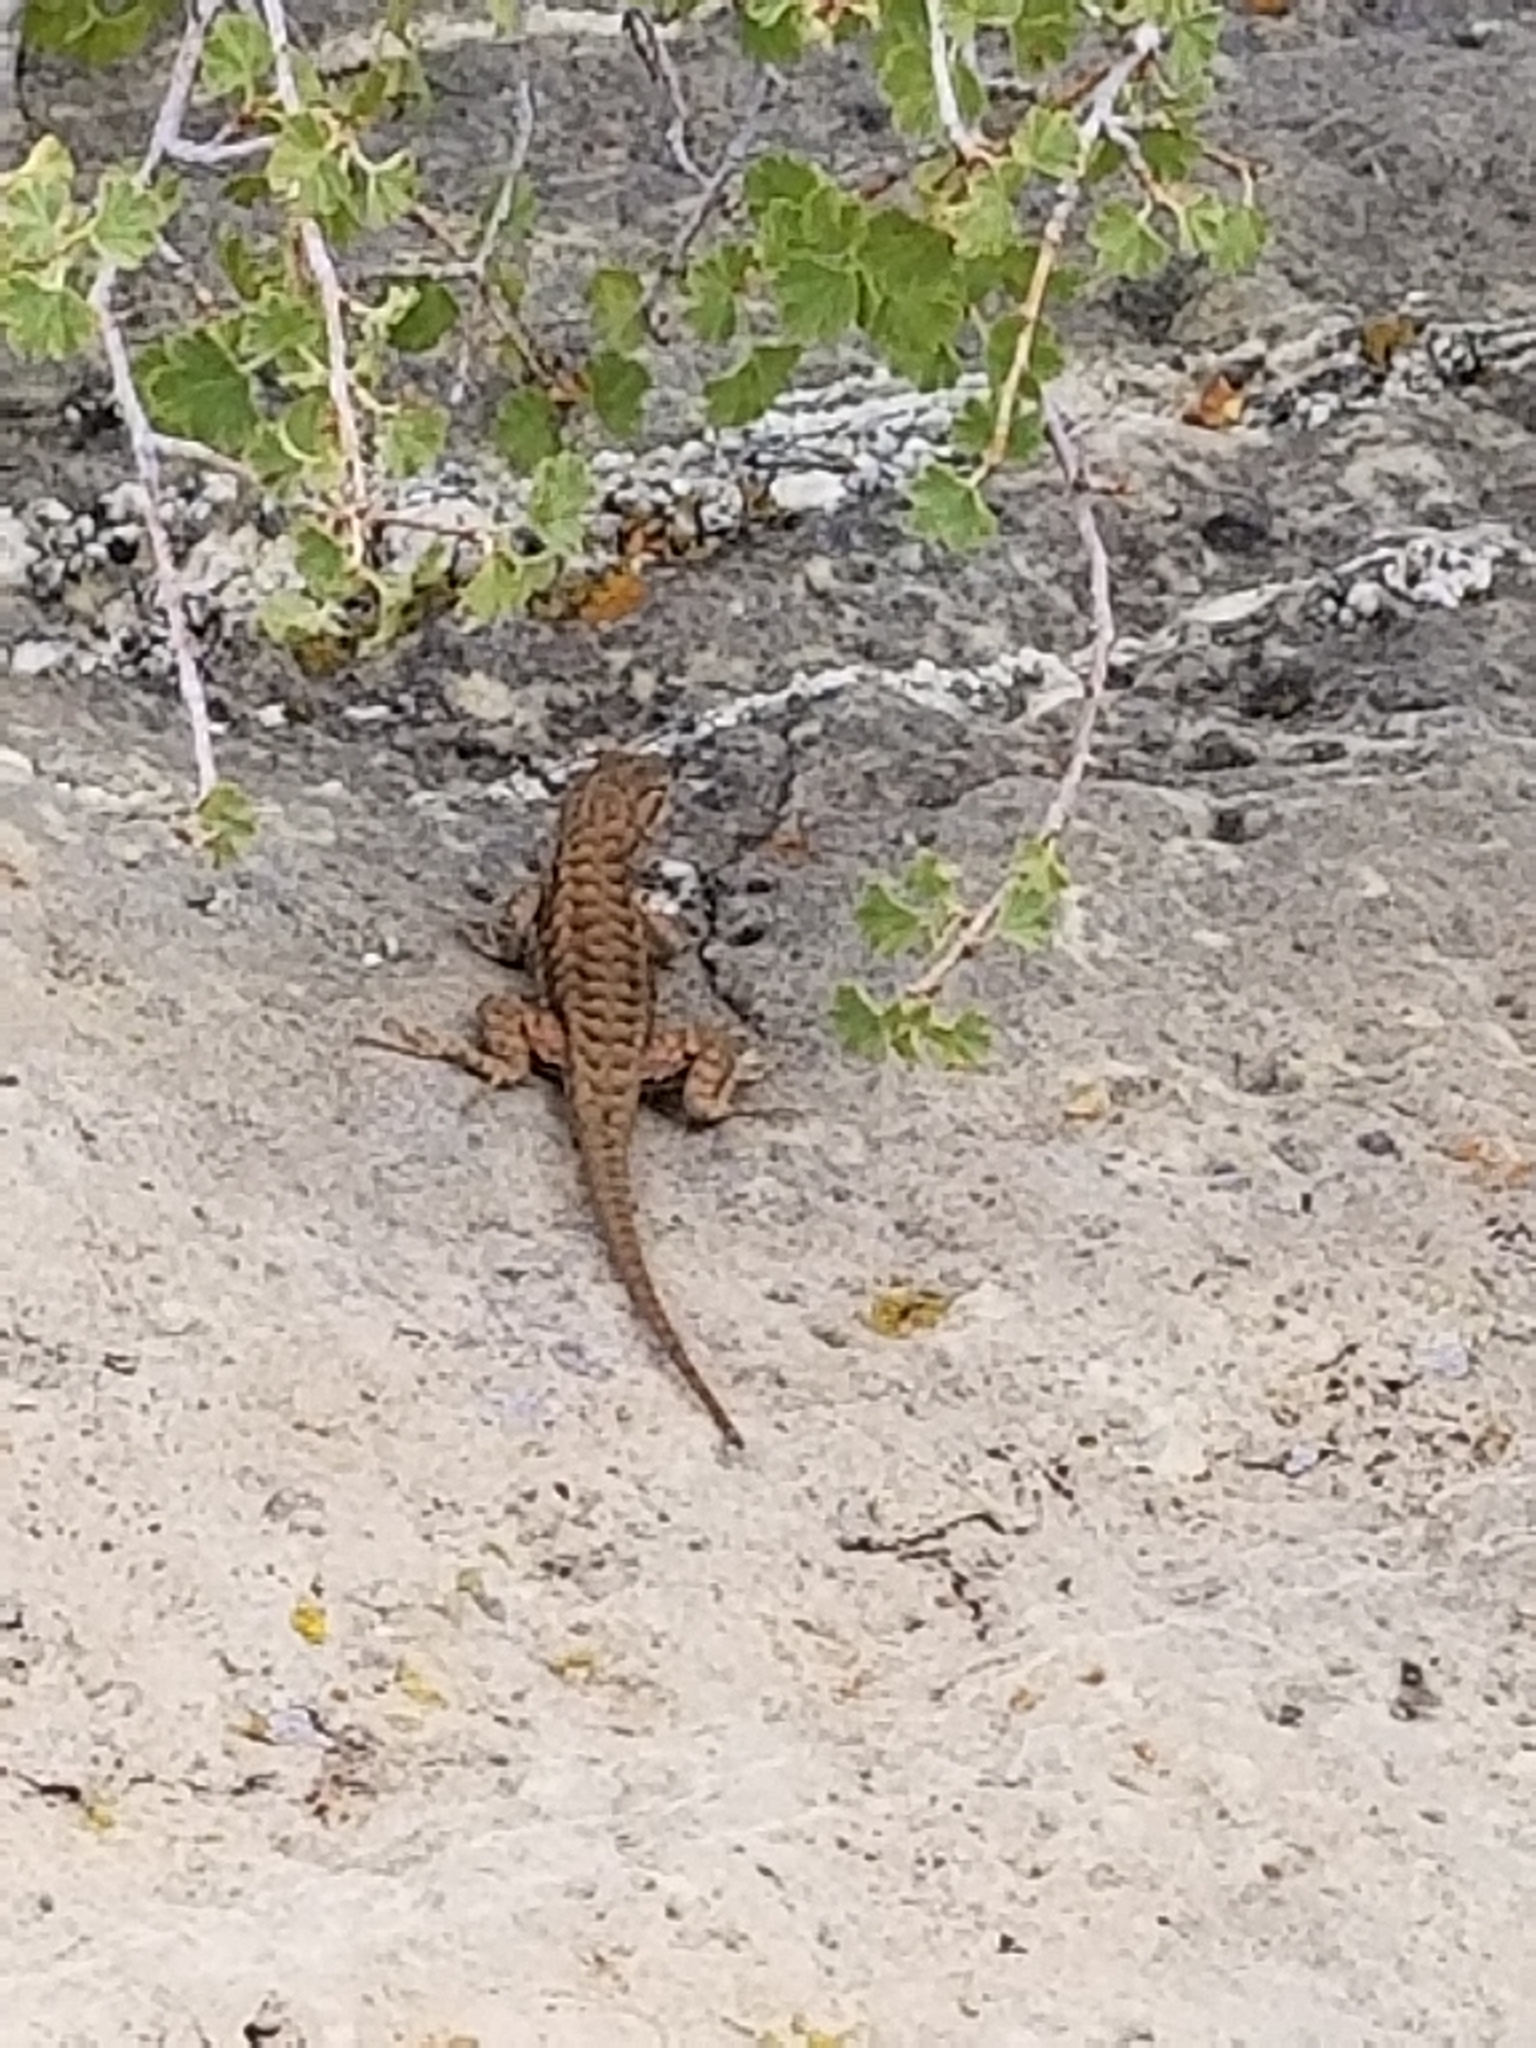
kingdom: Animalia
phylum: Chordata
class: Squamata
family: Phrynosomatidae
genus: Sceloporus
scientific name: Sceloporus tristichus
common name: Plateau fence lizard
